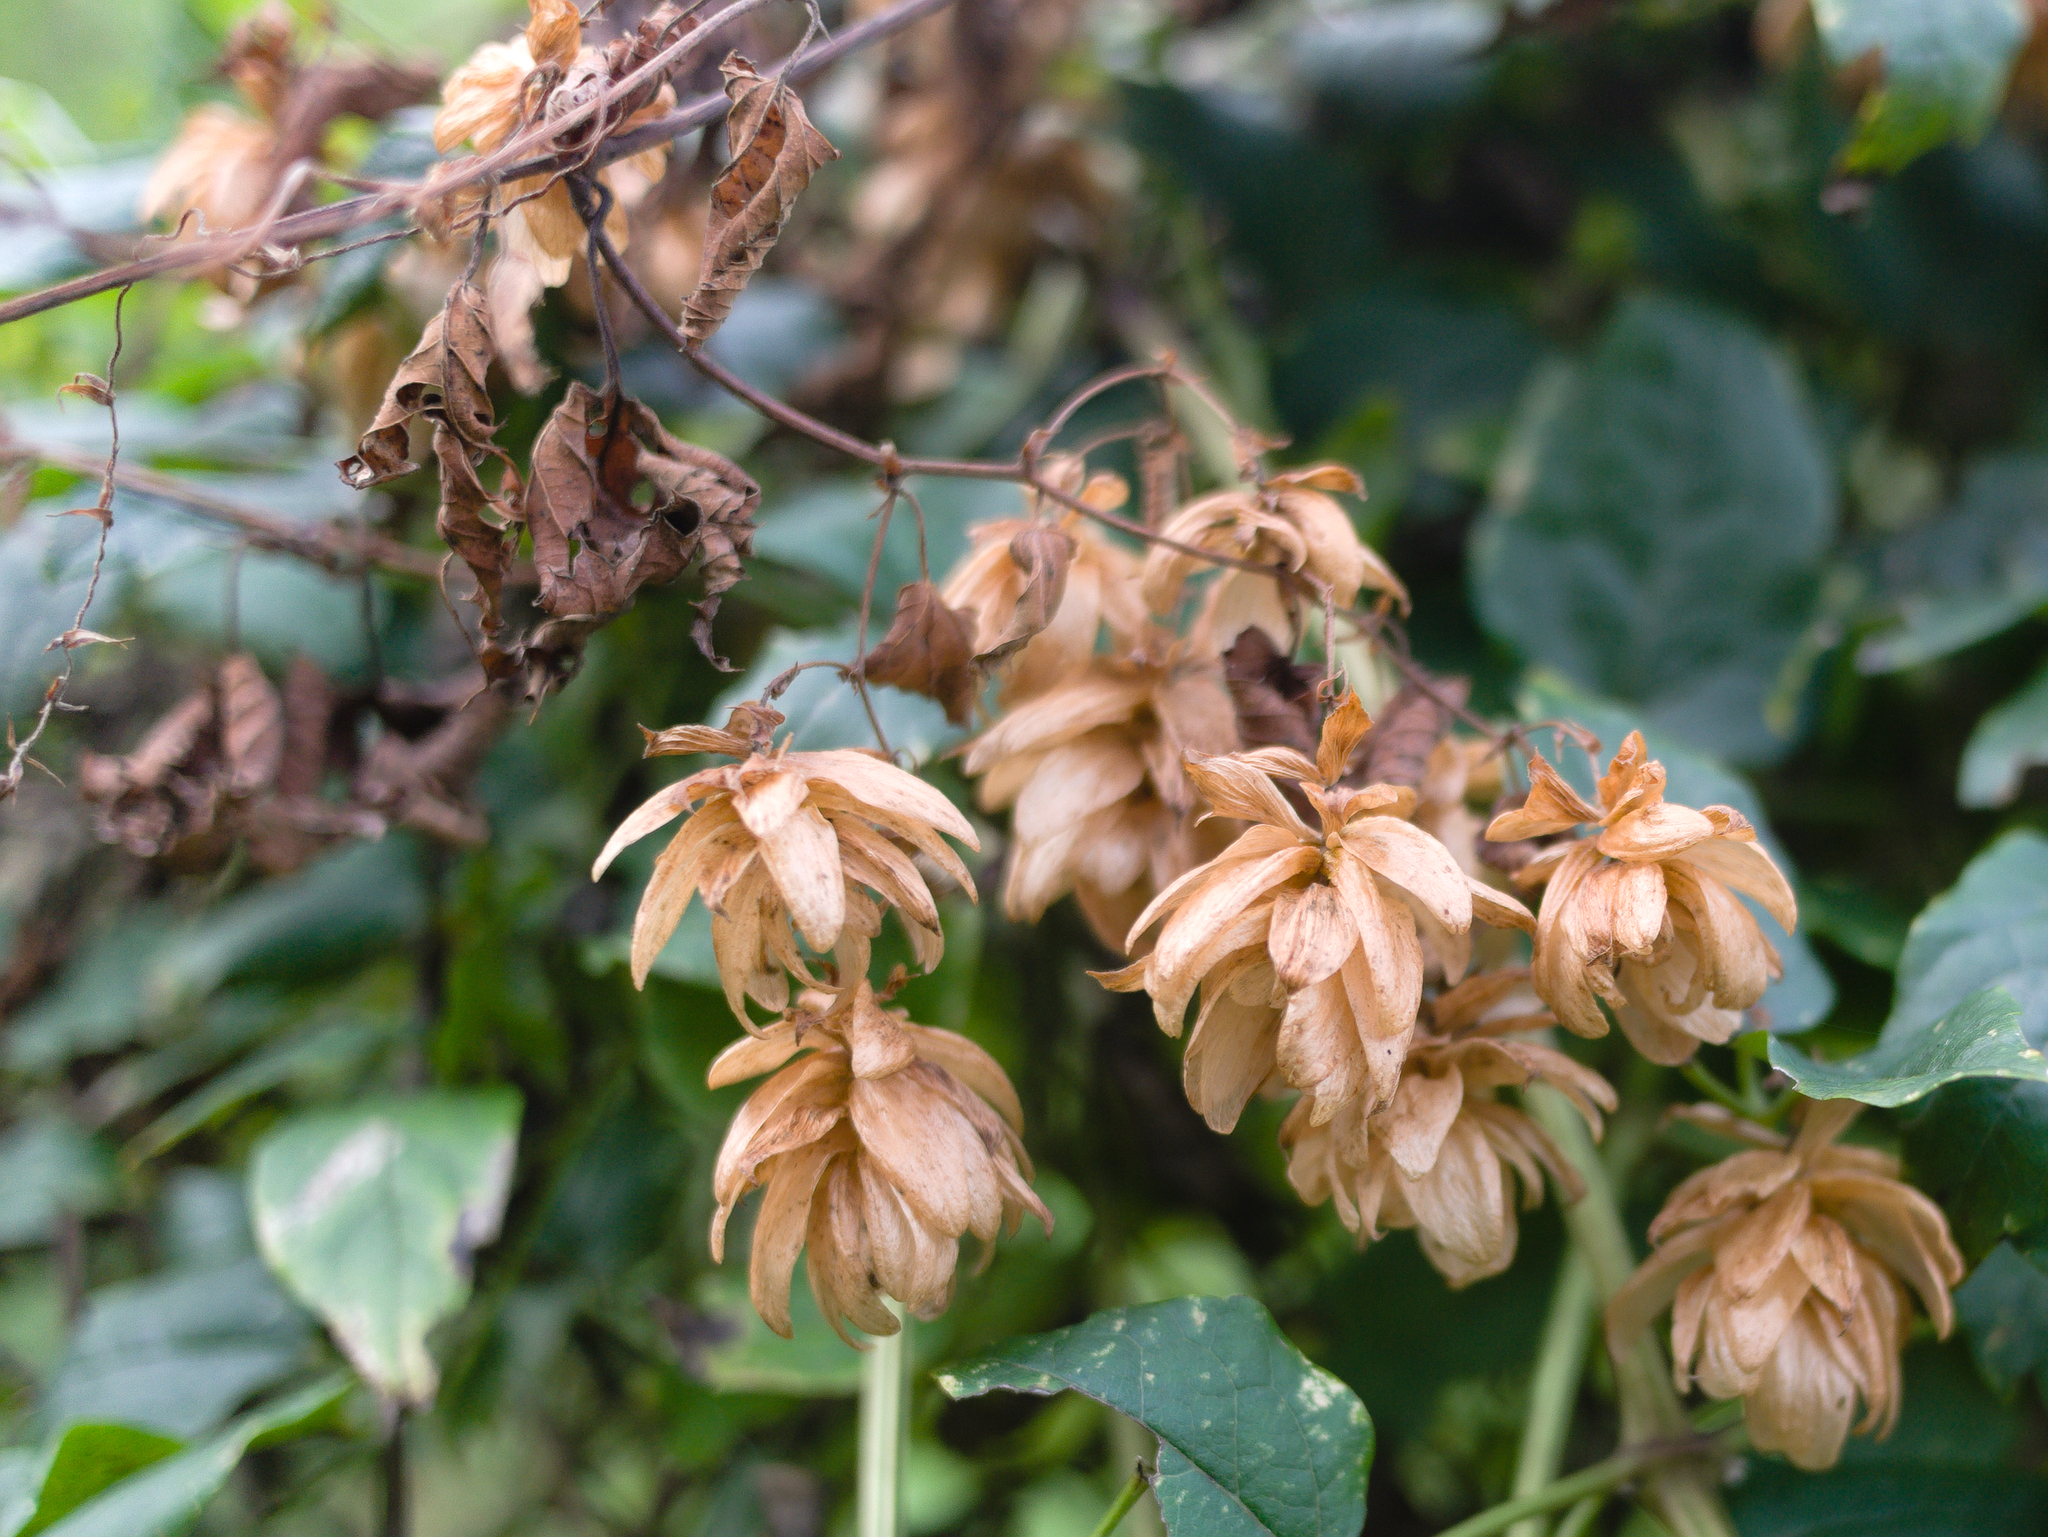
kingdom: Plantae
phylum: Tracheophyta
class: Magnoliopsida
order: Rosales
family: Cannabaceae
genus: Humulus
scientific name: Humulus lupulus
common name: Hop
